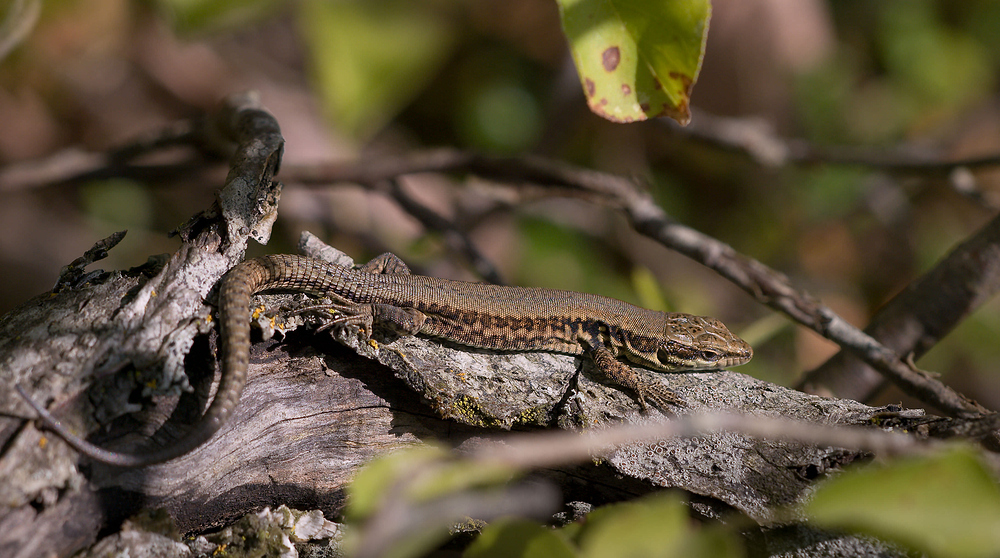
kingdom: Animalia
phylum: Chordata
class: Squamata
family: Lacertidae
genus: Podarcis
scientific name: Podarcis muralis
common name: Common wall lizard
